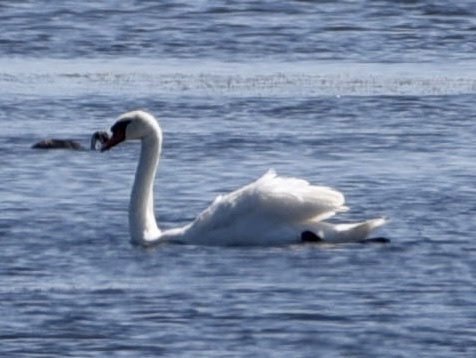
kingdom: Animalia
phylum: Chordata
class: Aves
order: Anseriformes
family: Anatidae
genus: Cygnus
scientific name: Cygnus olor
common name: Mute swan
